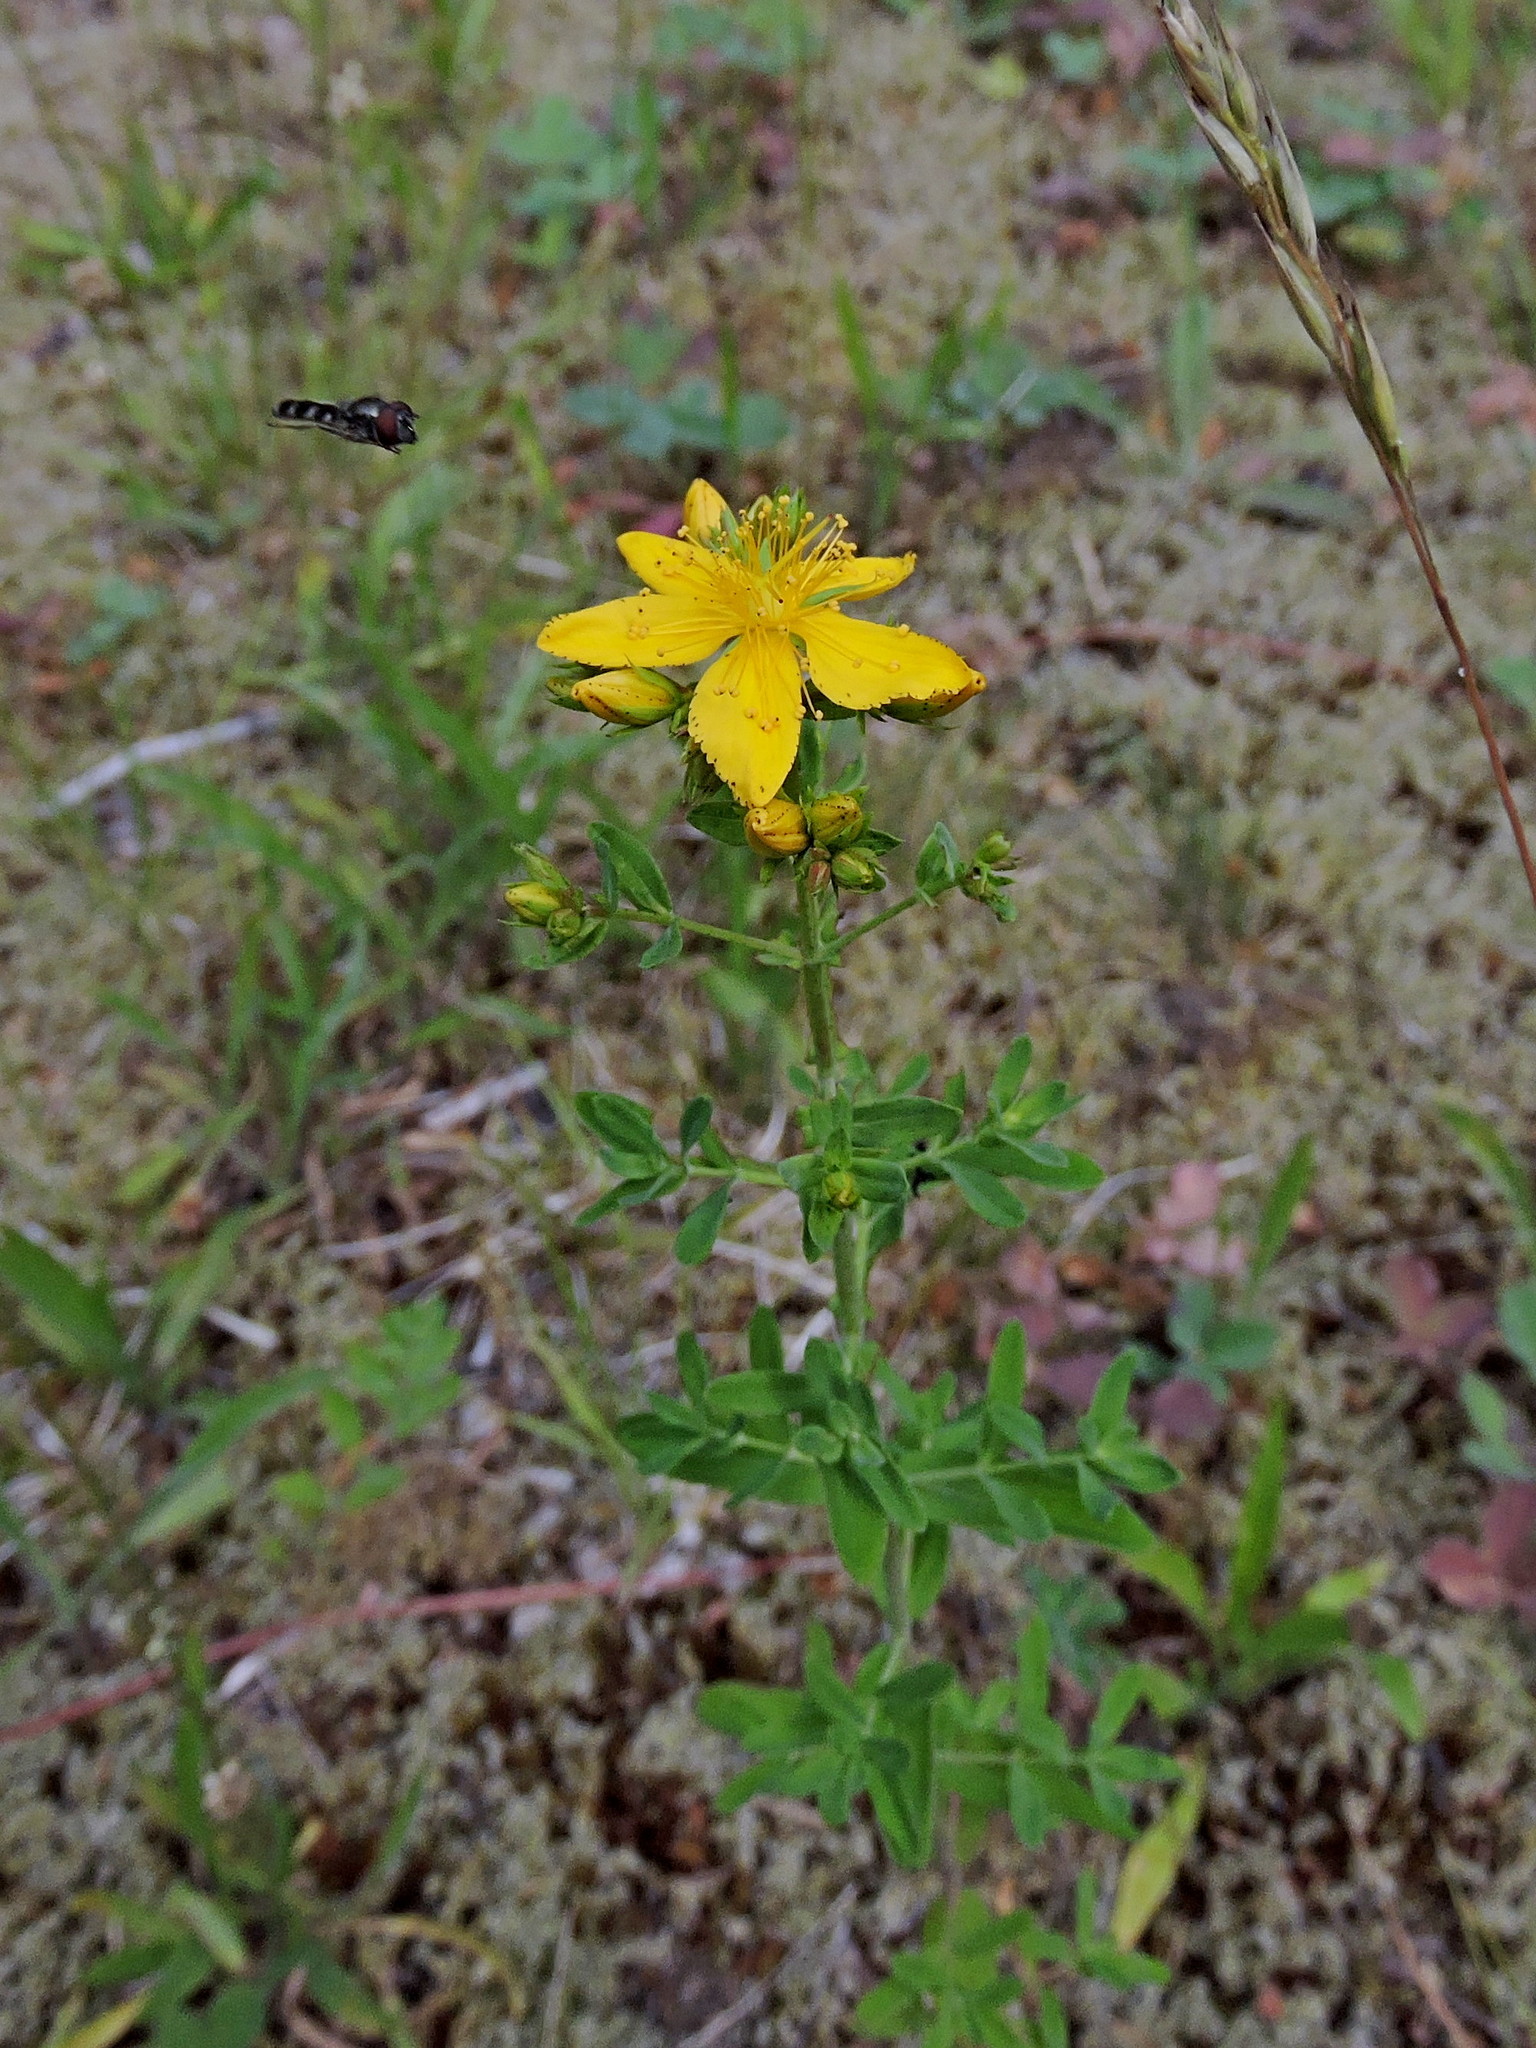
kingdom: Plantae
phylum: Tracheophyta
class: Magnoliopsida
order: Malpighiales
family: Hypericaceae
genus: Hypericum
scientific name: Hypericum perforatum
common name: Common st. johnswort
